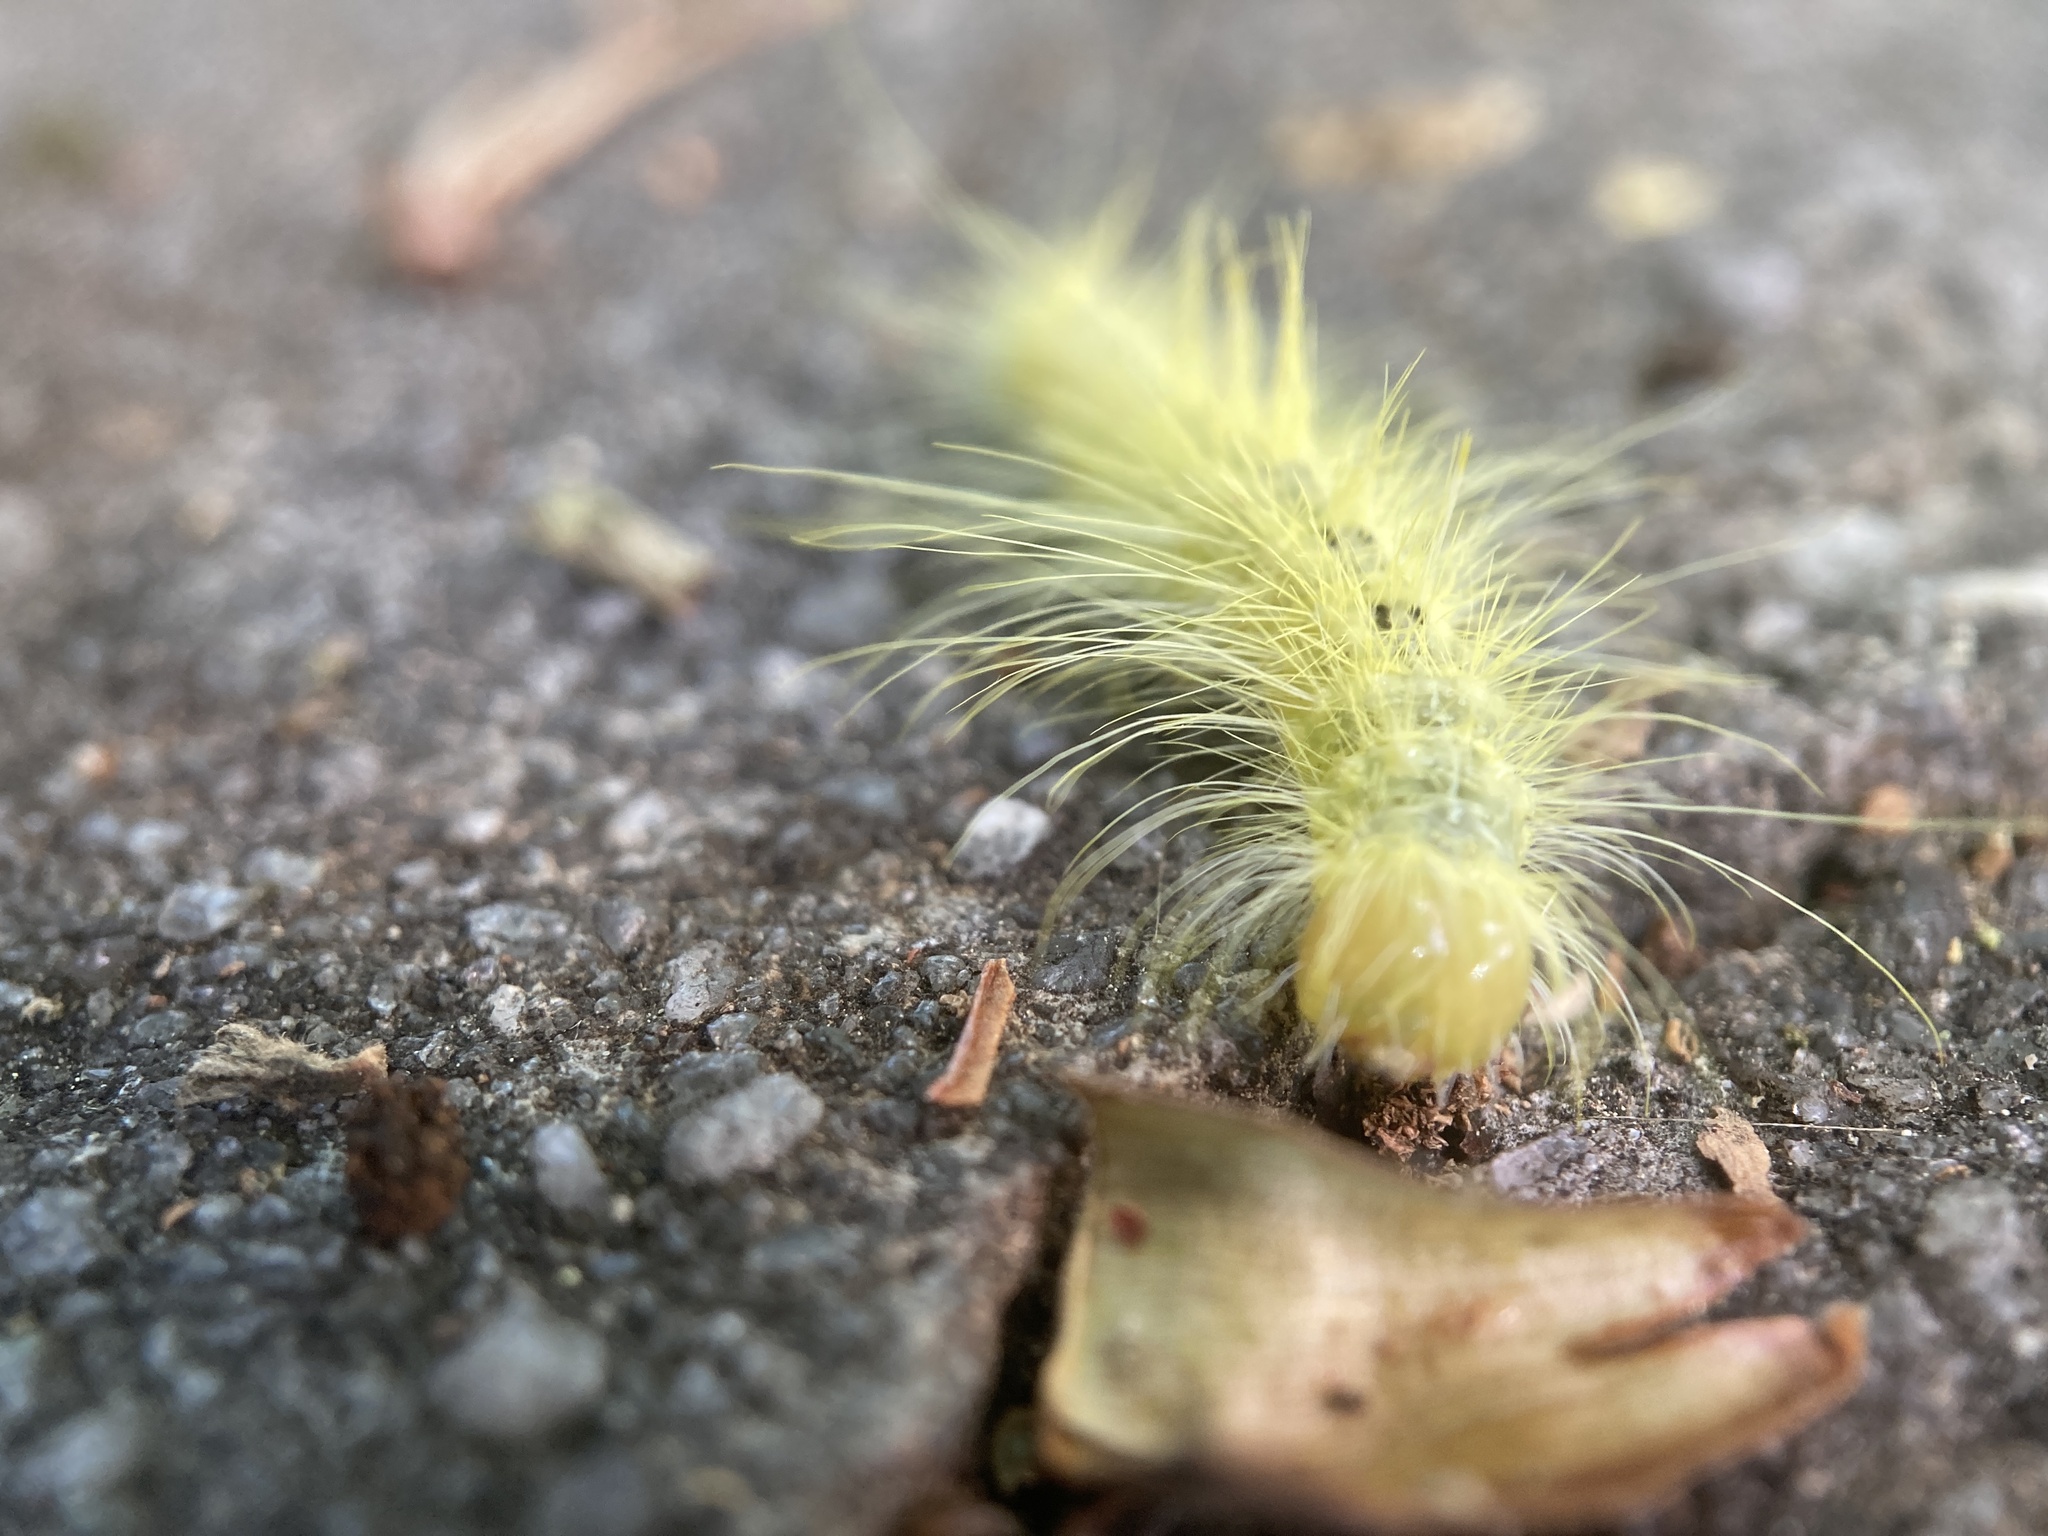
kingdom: Animalia
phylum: Arthropoda
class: Insecta
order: Lepidoptera
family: Noctuidae
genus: Acronicta
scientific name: Acronicta rubricoma
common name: Hackberry dagger
